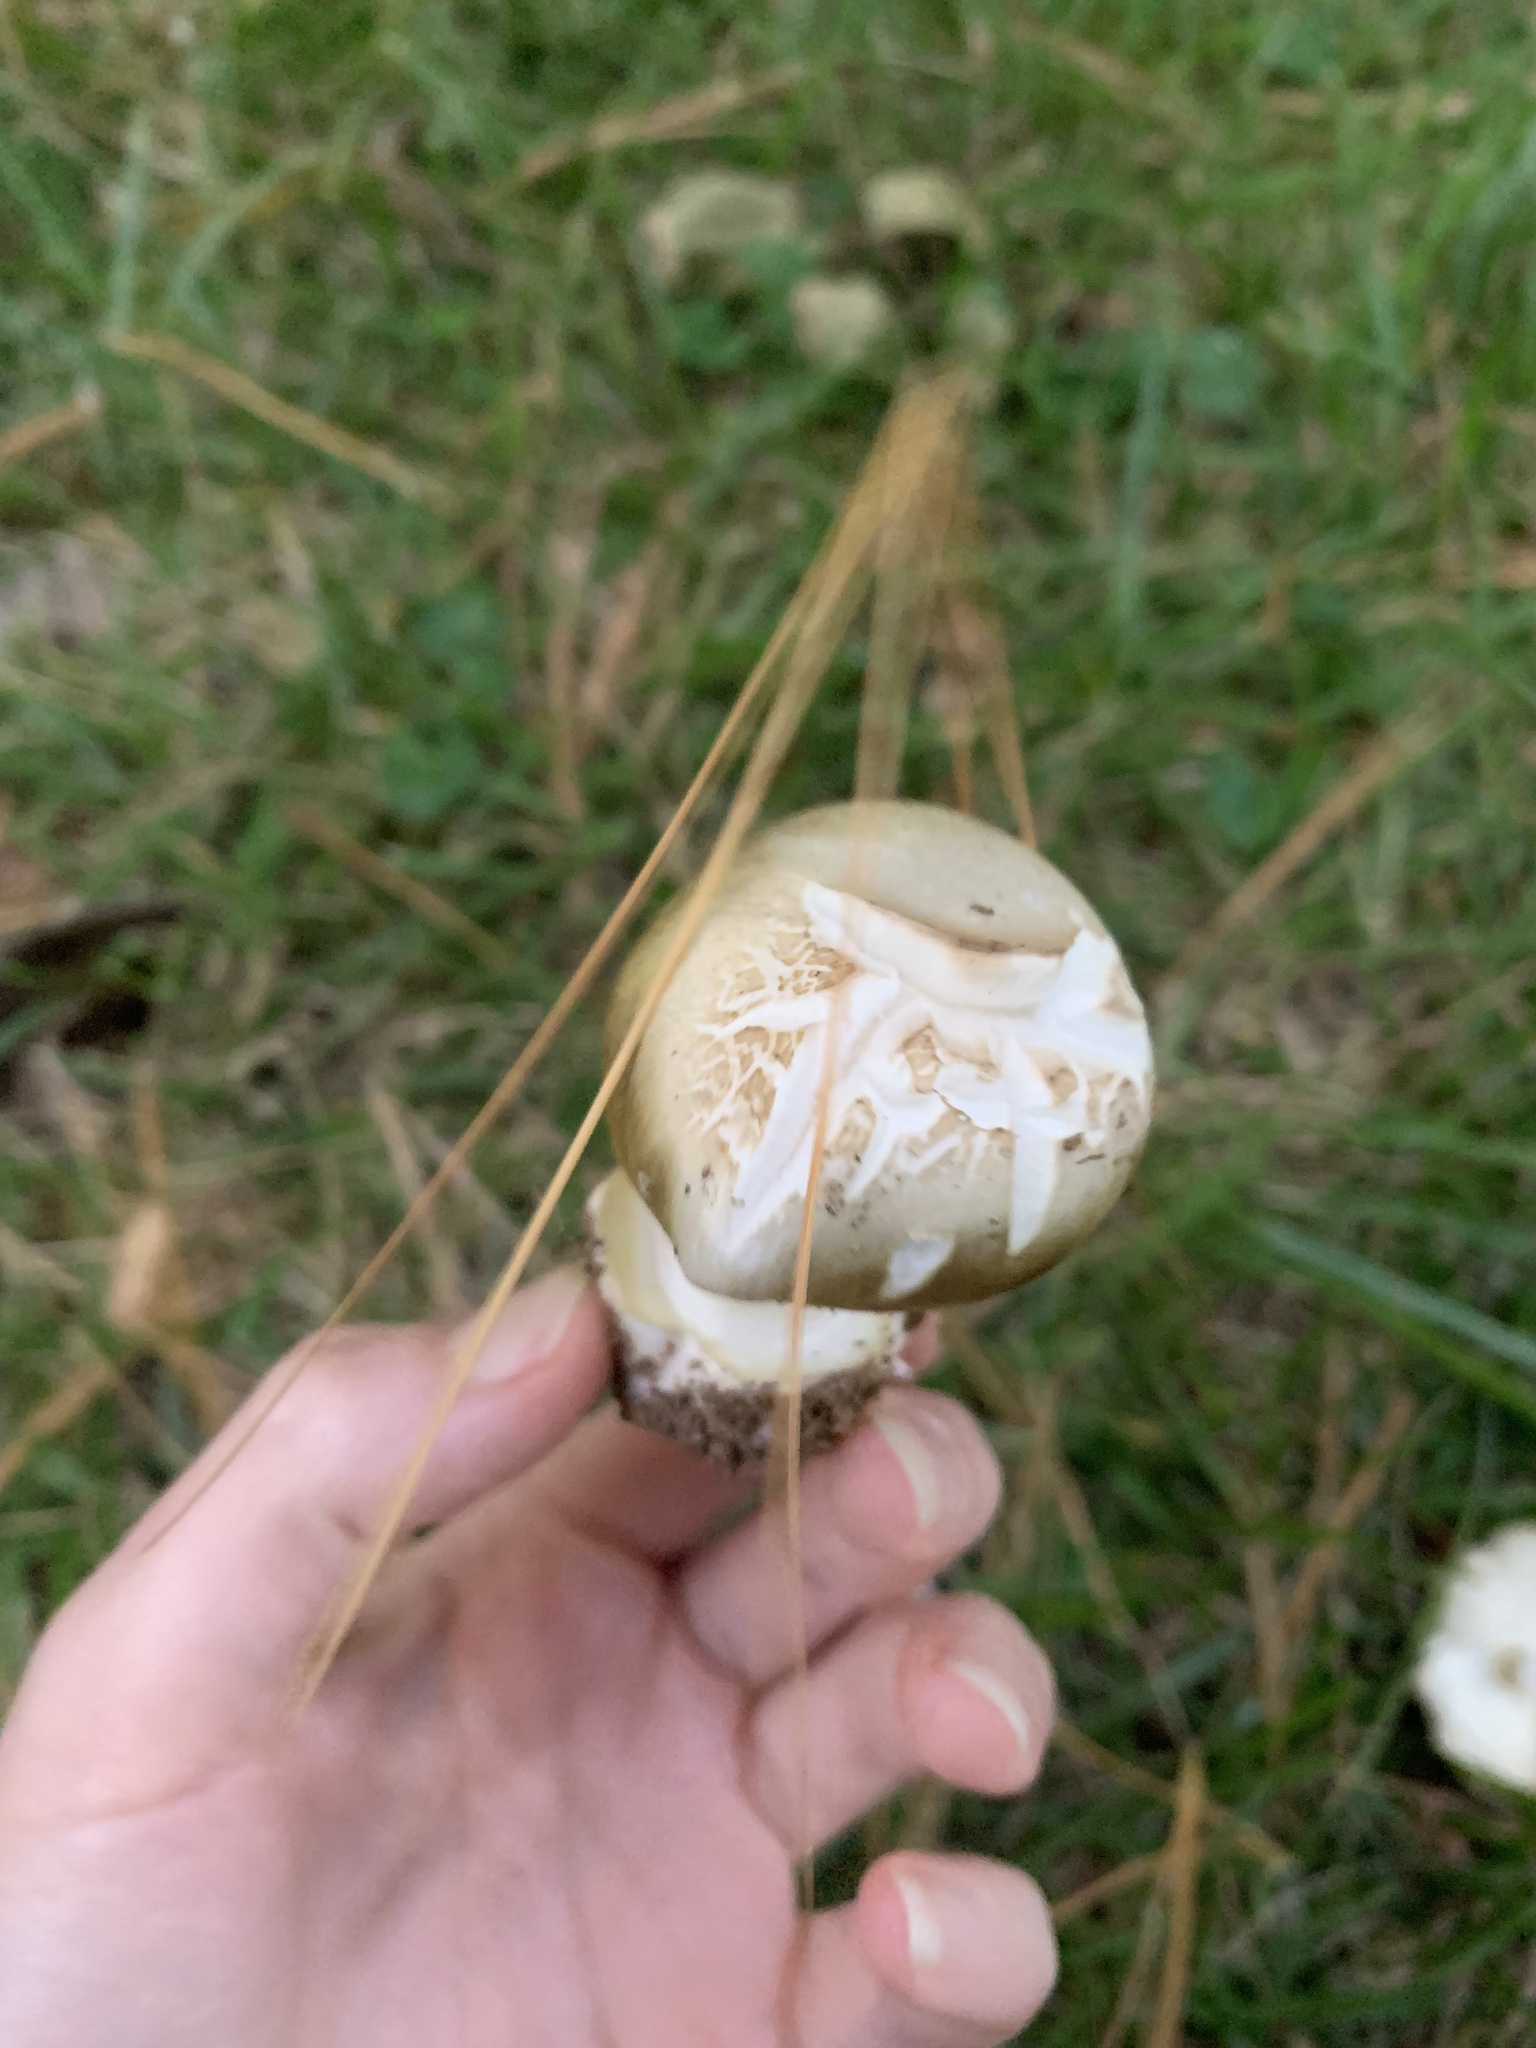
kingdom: Fungi
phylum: Basidiomycota
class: Agaricomycetes
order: Agaricales
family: Amanitaceae
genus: Amanita
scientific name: Amanita phalloides
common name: Death cap
